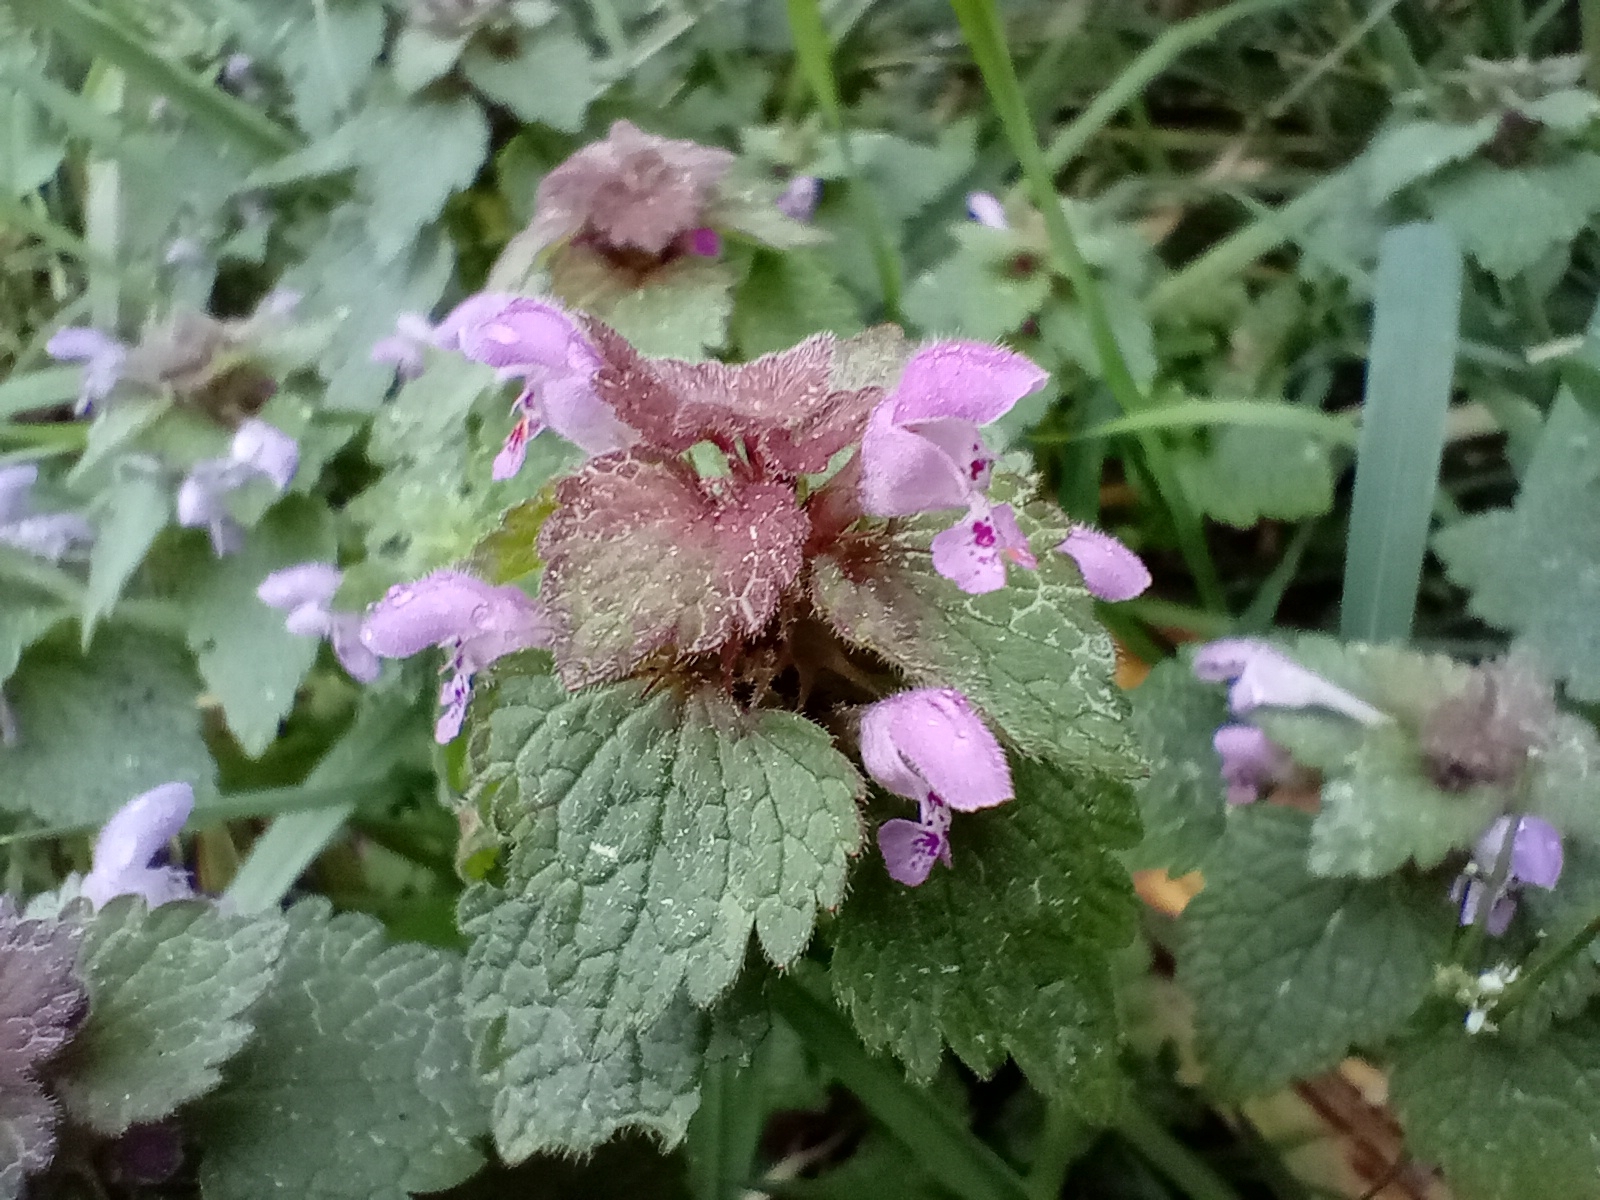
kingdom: Plantae
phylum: Tracheophyta
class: Magnoliopsida
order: Lamiales
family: Lamiaceae
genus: Lamium
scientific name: Lamium purpureum
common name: Red dead-nettle
